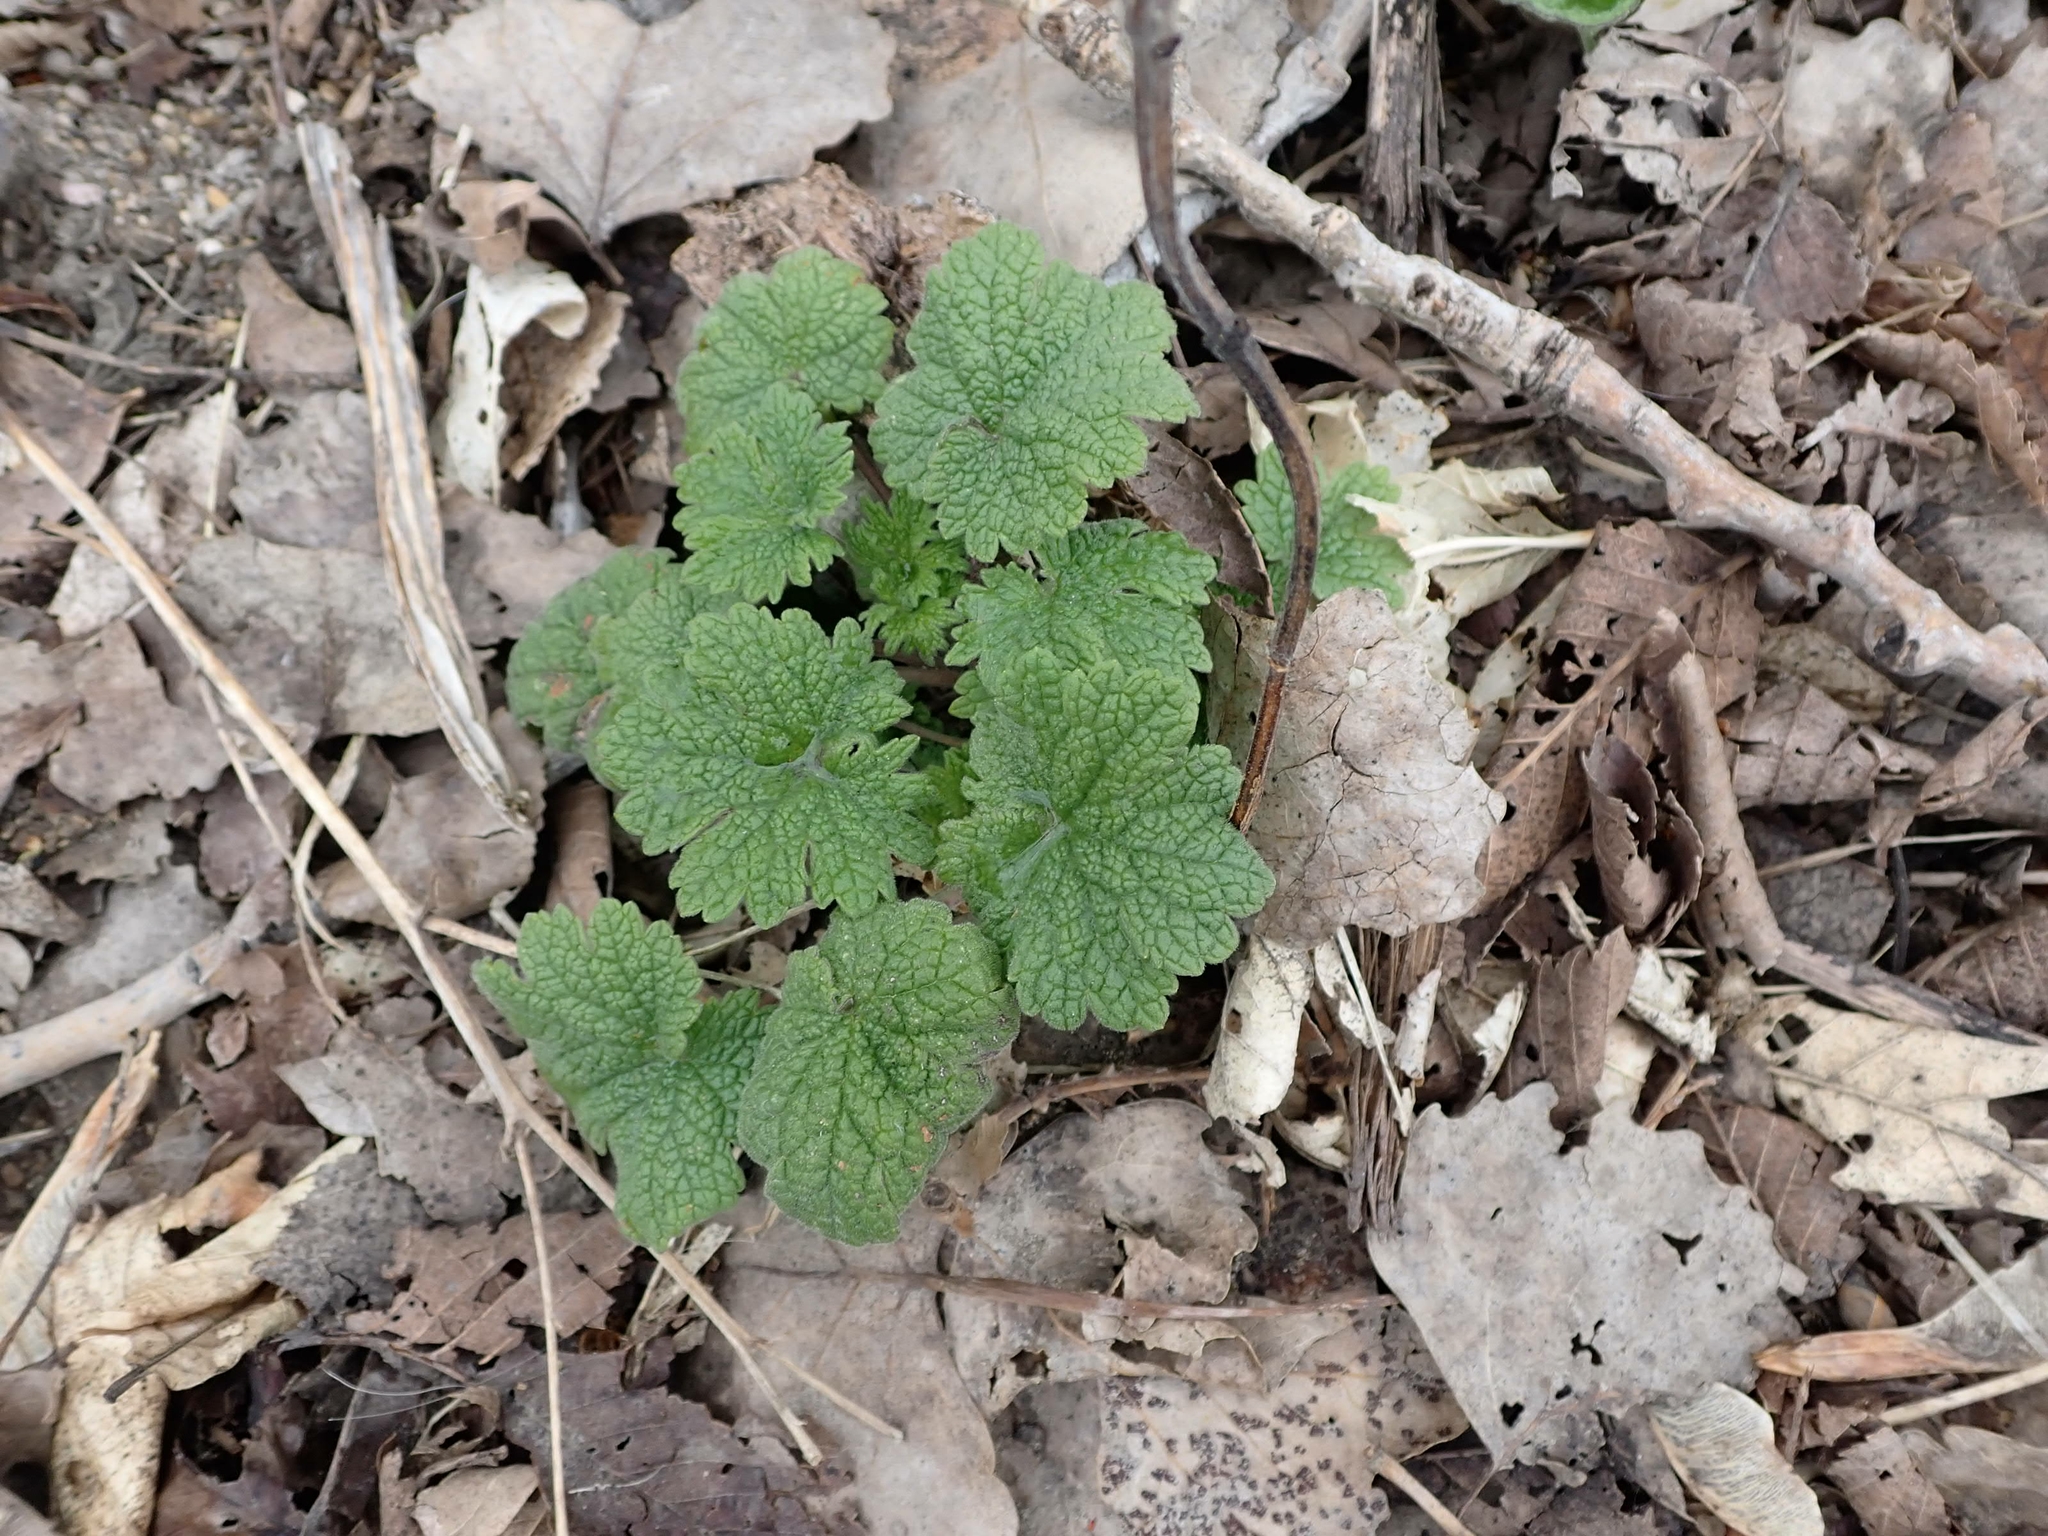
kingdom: Plantae
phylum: Tracheophyta
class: Magnoliopsida
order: Lamiales
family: Lamiaceae
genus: Leonurus
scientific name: Leonurus cardiaca
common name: Motherwort
